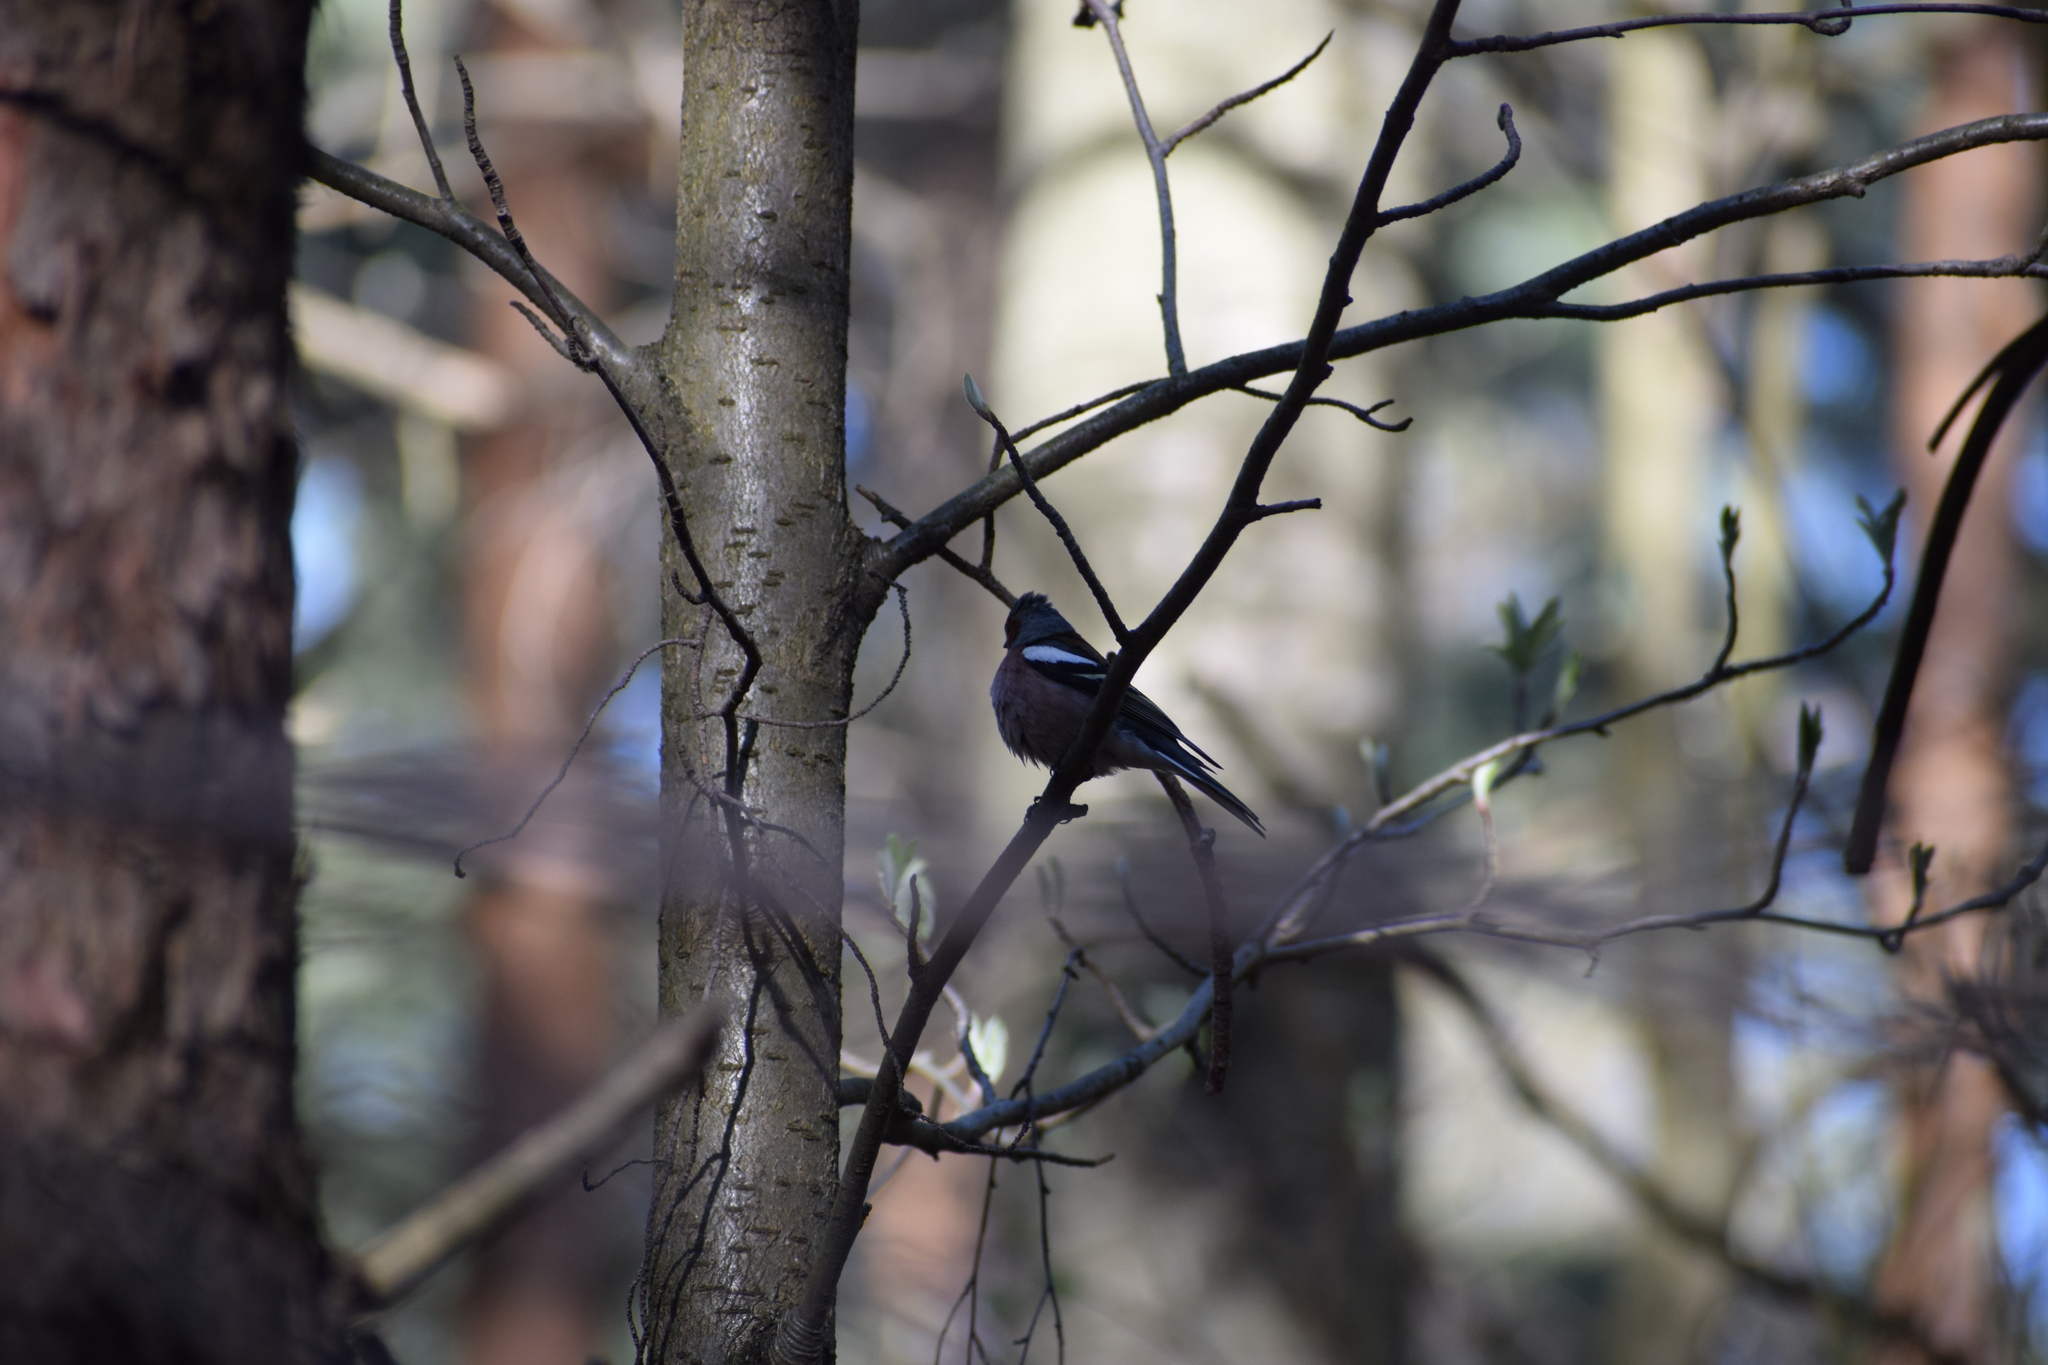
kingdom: Animalia
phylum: Chordata
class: Aves
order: Passeriformes
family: Fringillidae
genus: Fringilla
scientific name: Fringilla coelebs
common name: Common chaffinch
